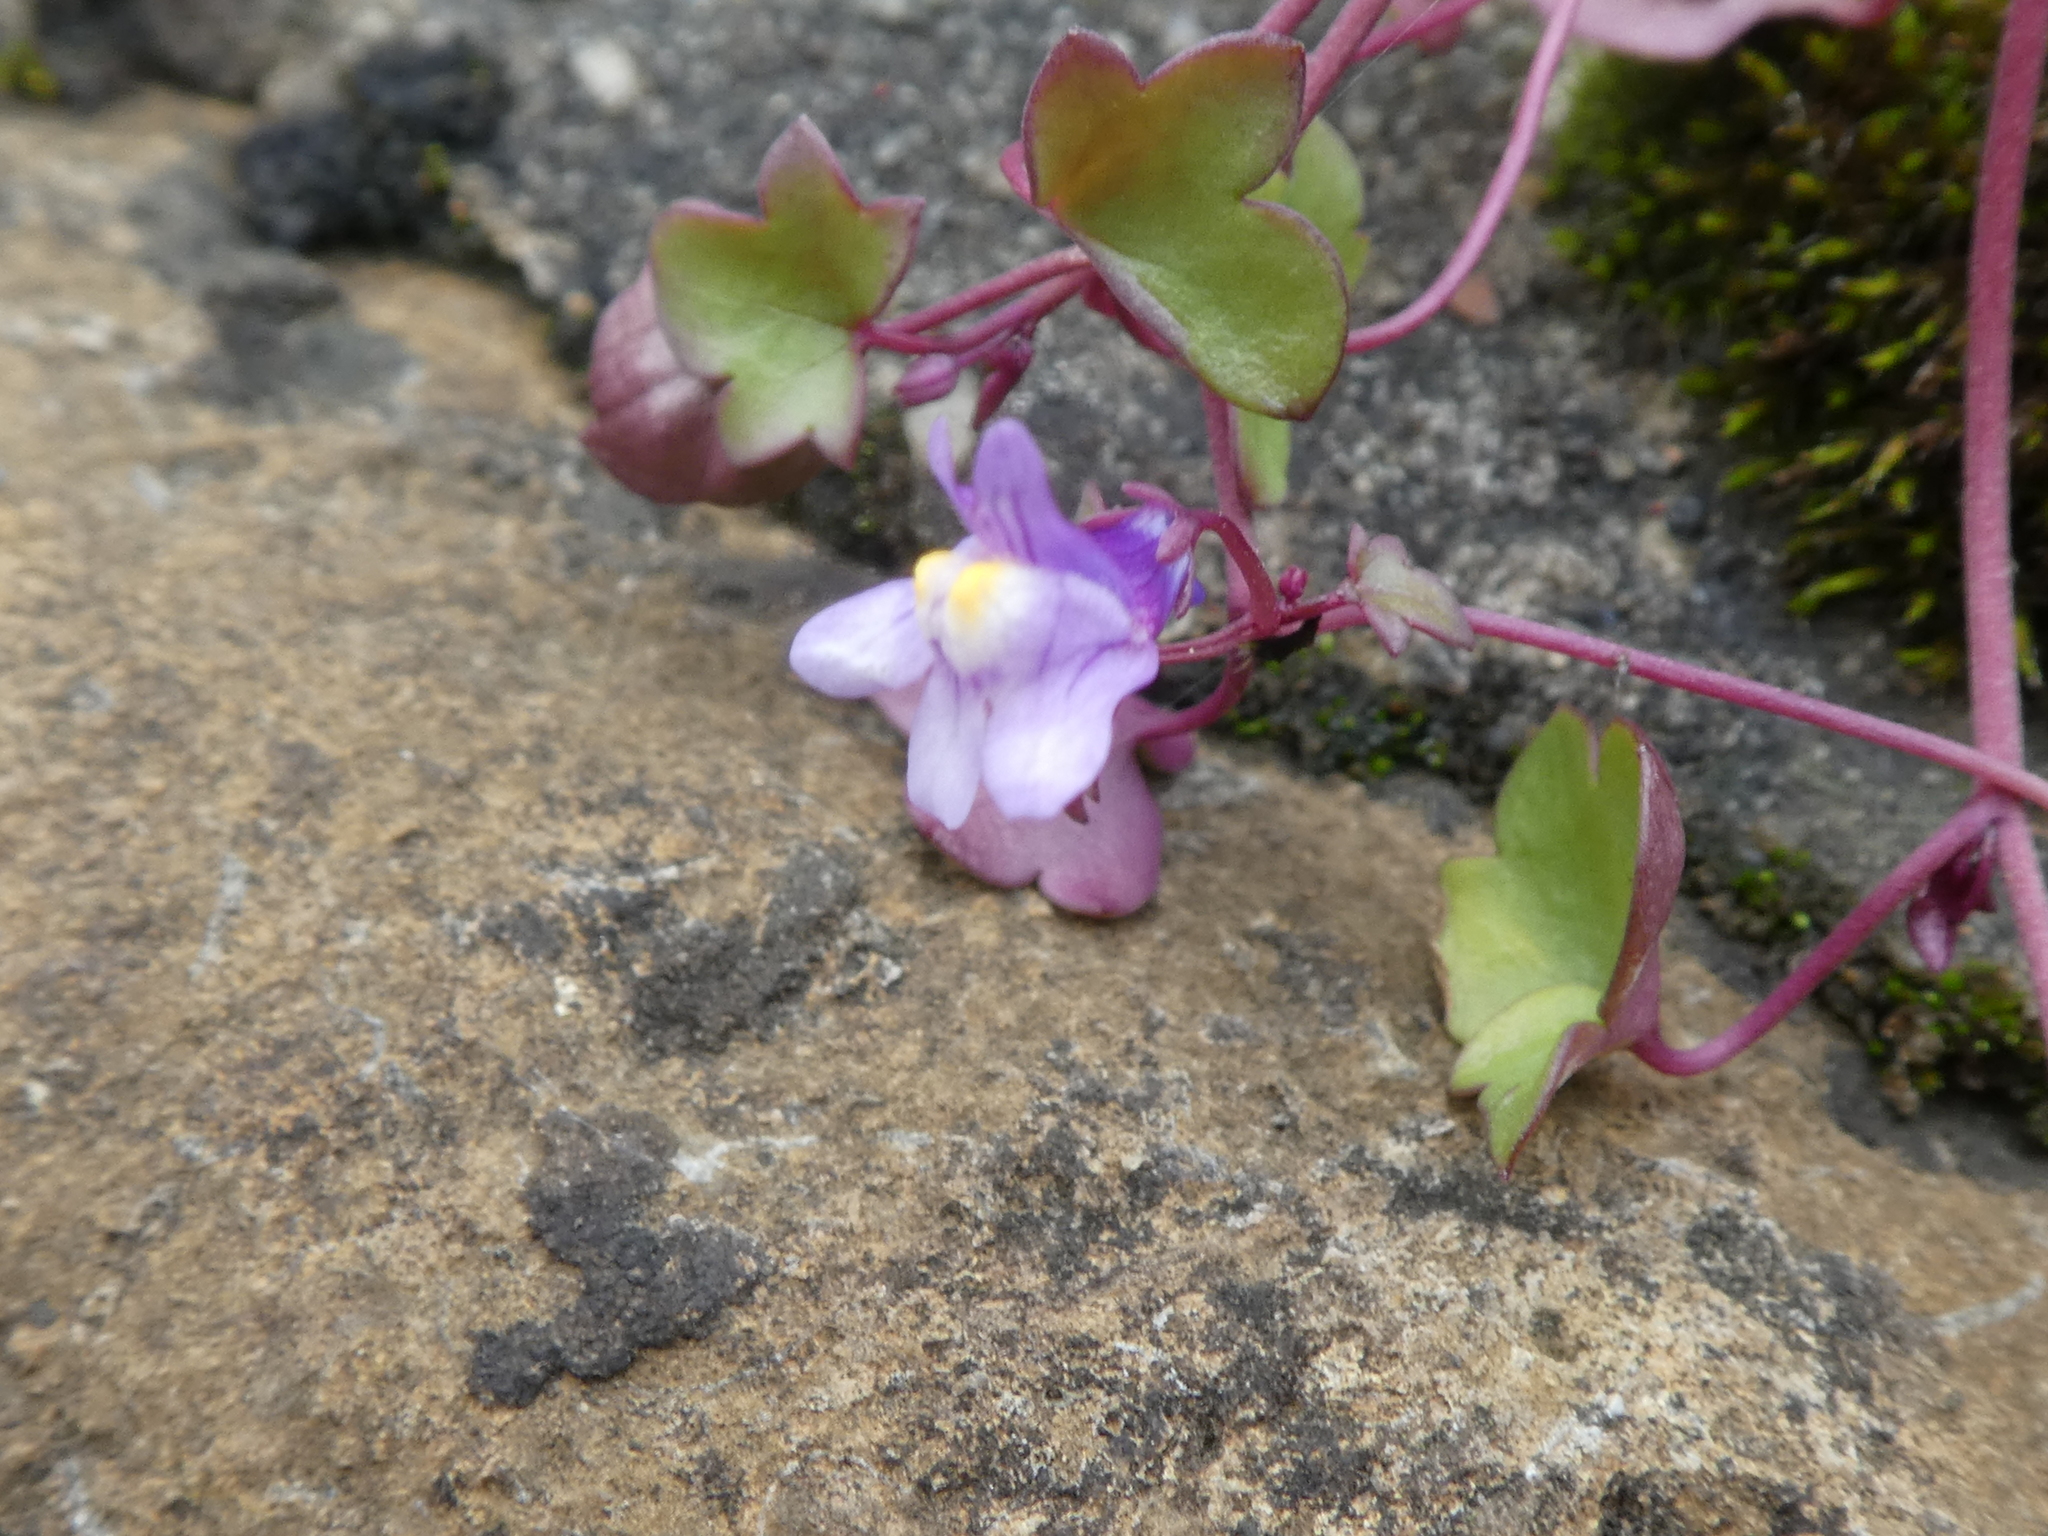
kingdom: Plantae
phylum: Tracheophyta
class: Magnoliopsida
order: Lamiales
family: Plantaginaceae
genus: Cymbalaria
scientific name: Cymbalaria muralis
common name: Ivy-leaved toadflax
